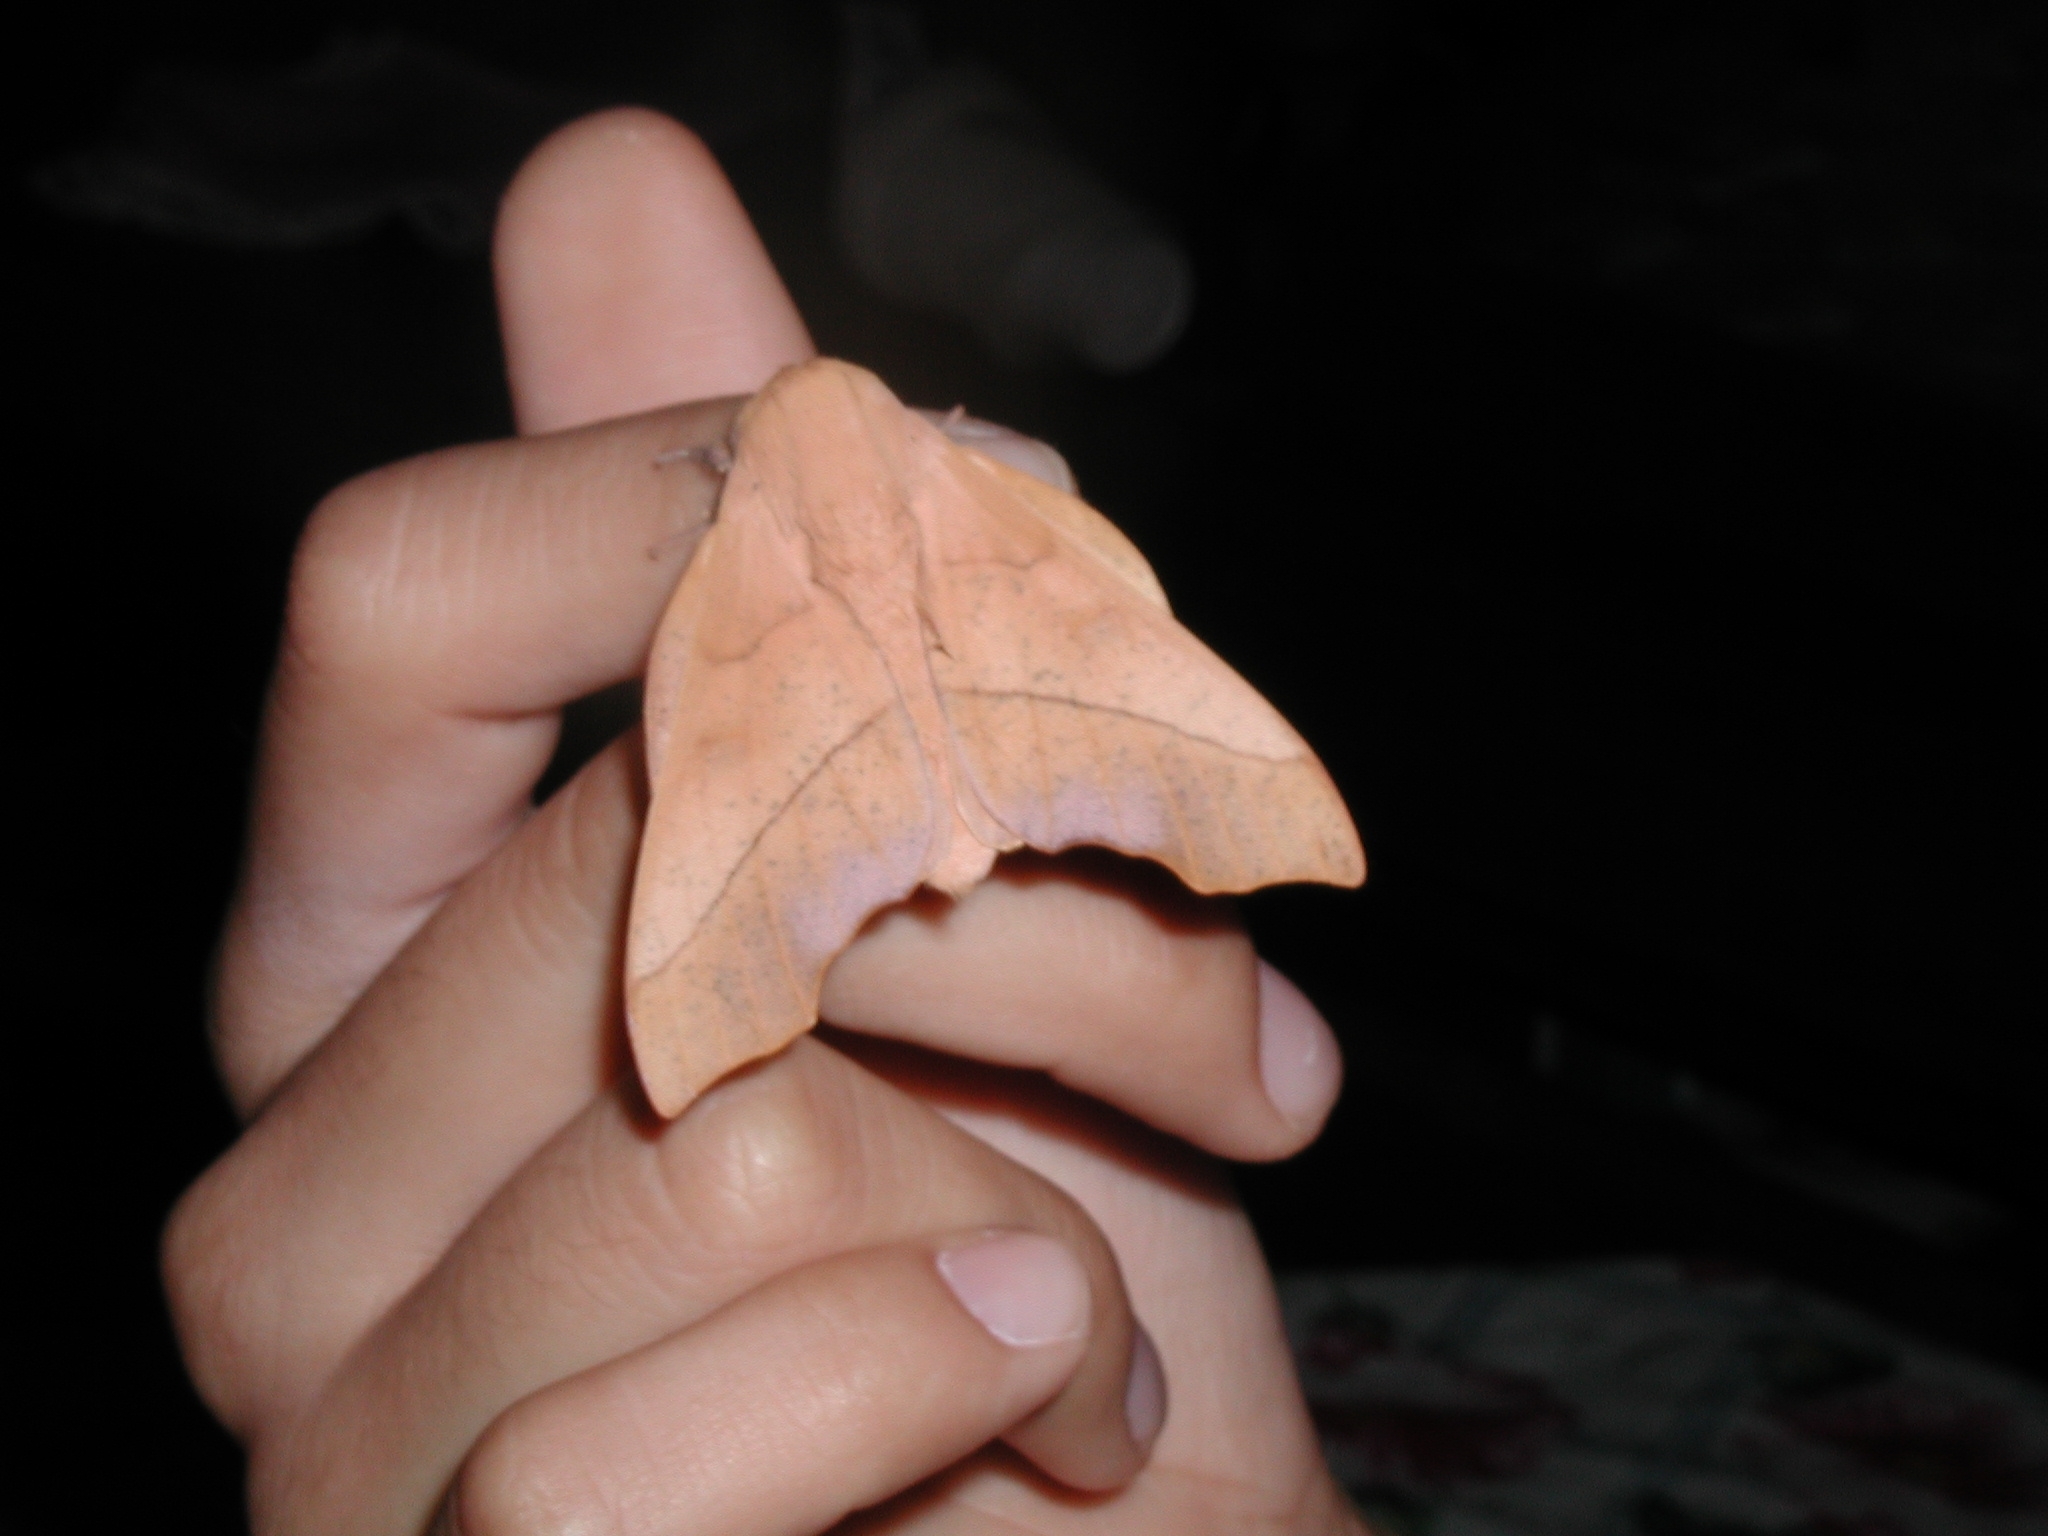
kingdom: Animalia
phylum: Arthropoda
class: Insecta
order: Lepidoptera
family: Saturniidae
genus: Syssphinx
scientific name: Syssphinx molina
